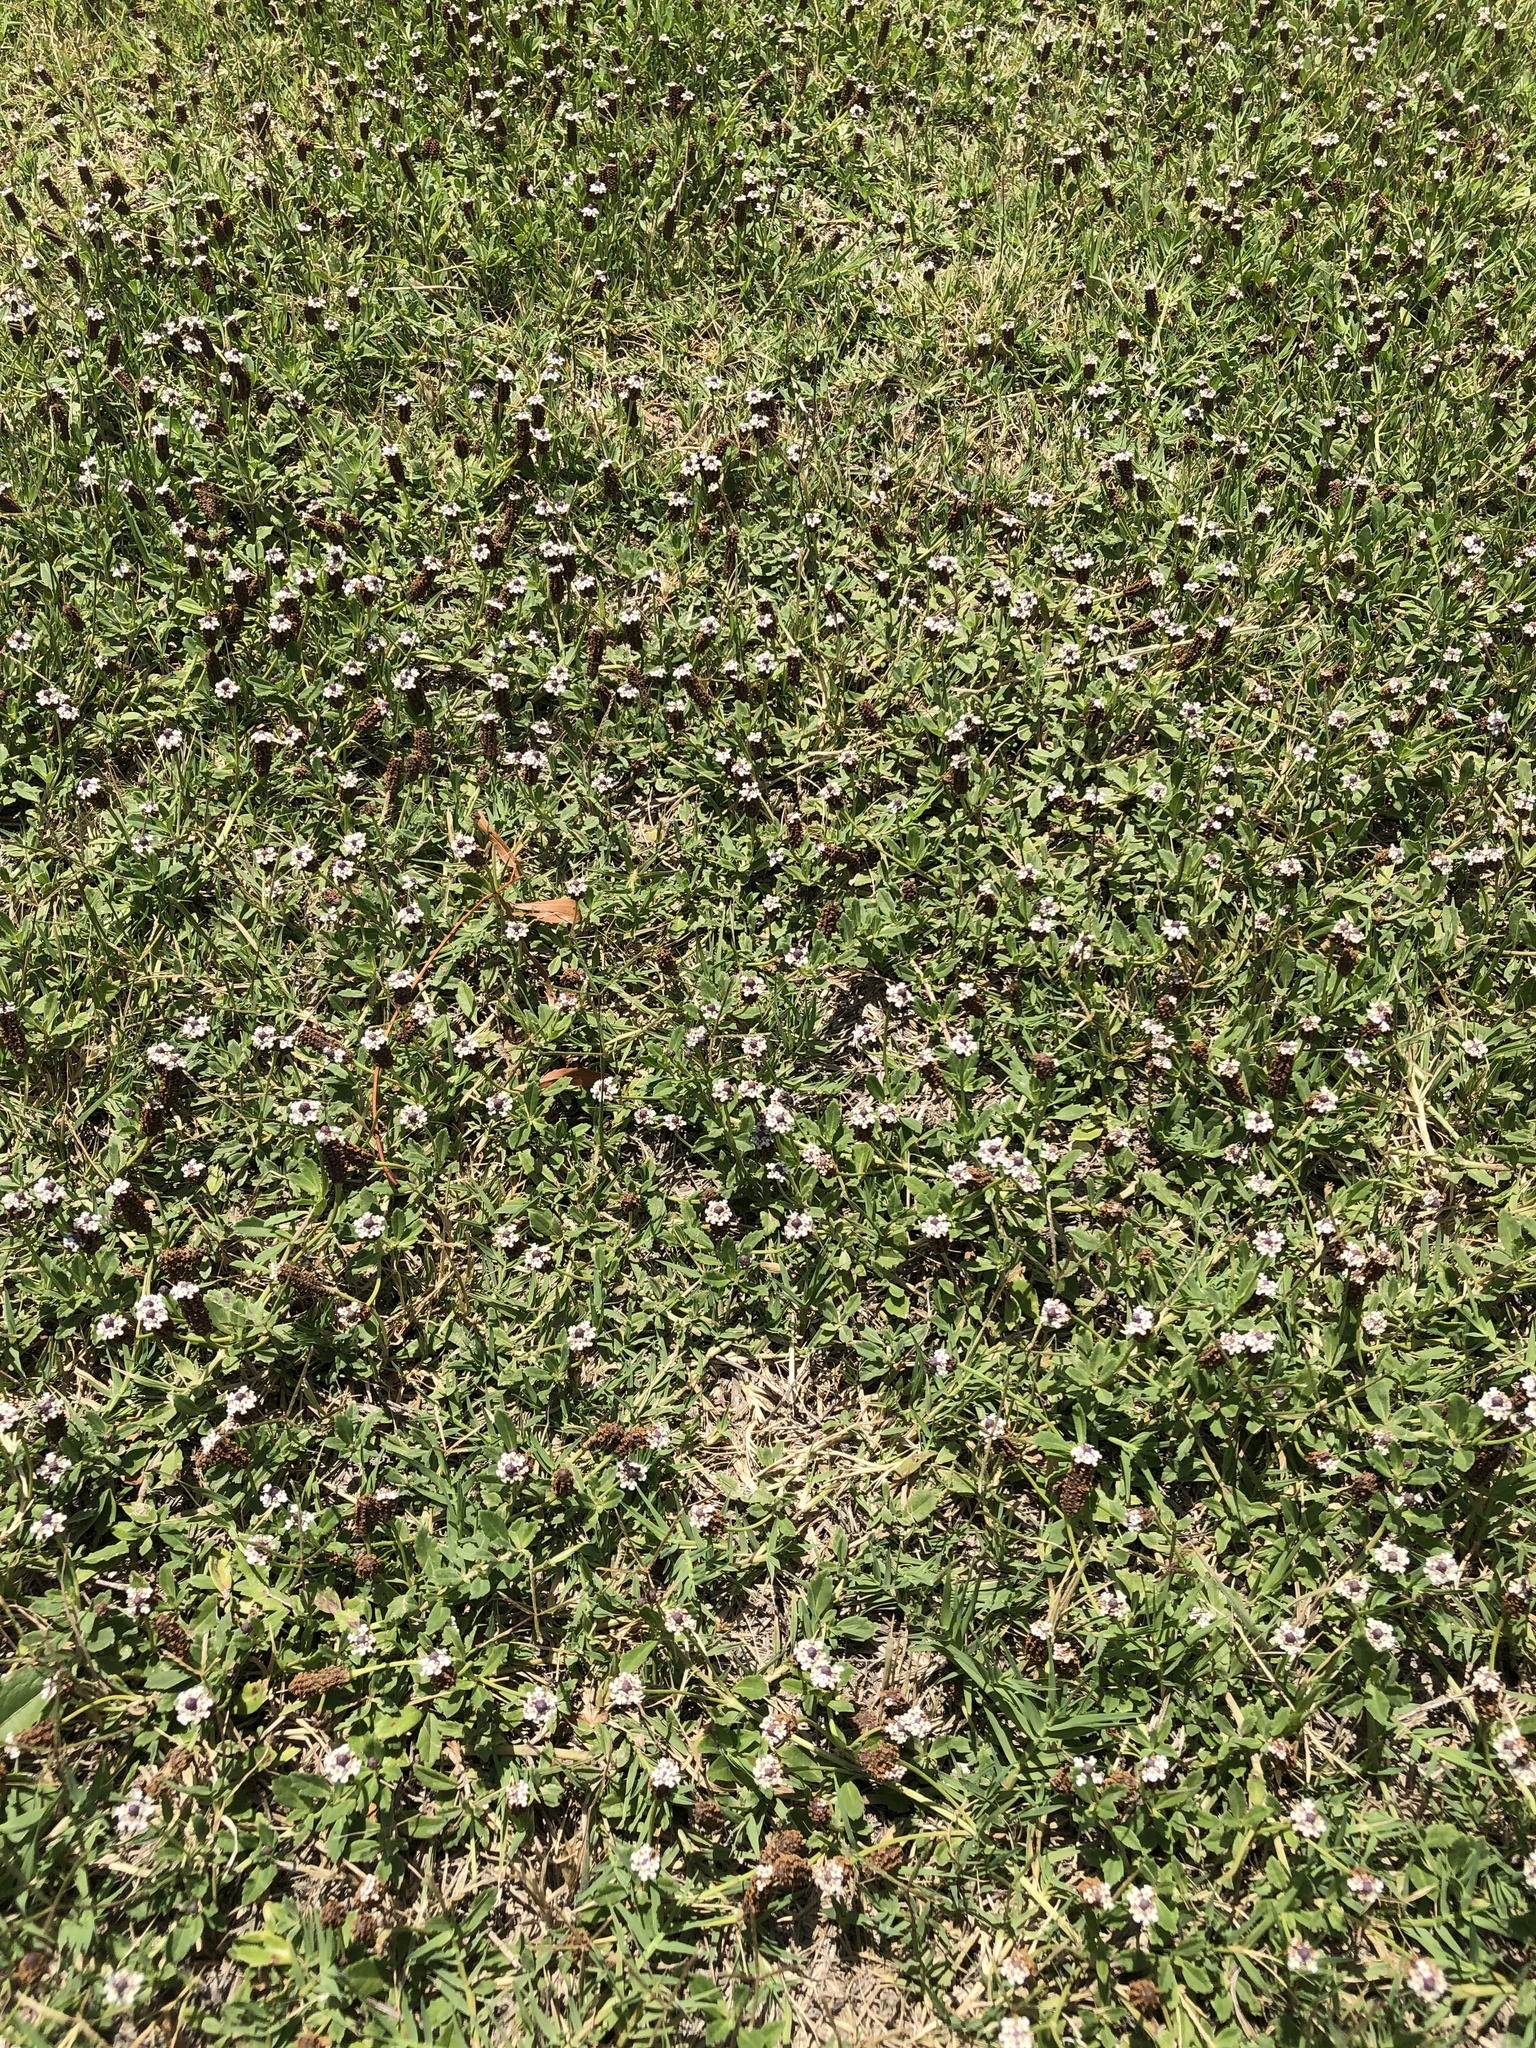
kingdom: Plantae
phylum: Tracheophyta
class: Magnoliopsida
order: Lamiales
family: Verbenaceae
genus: Phyla
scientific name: Phyla nodiflora
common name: Frogfruit
